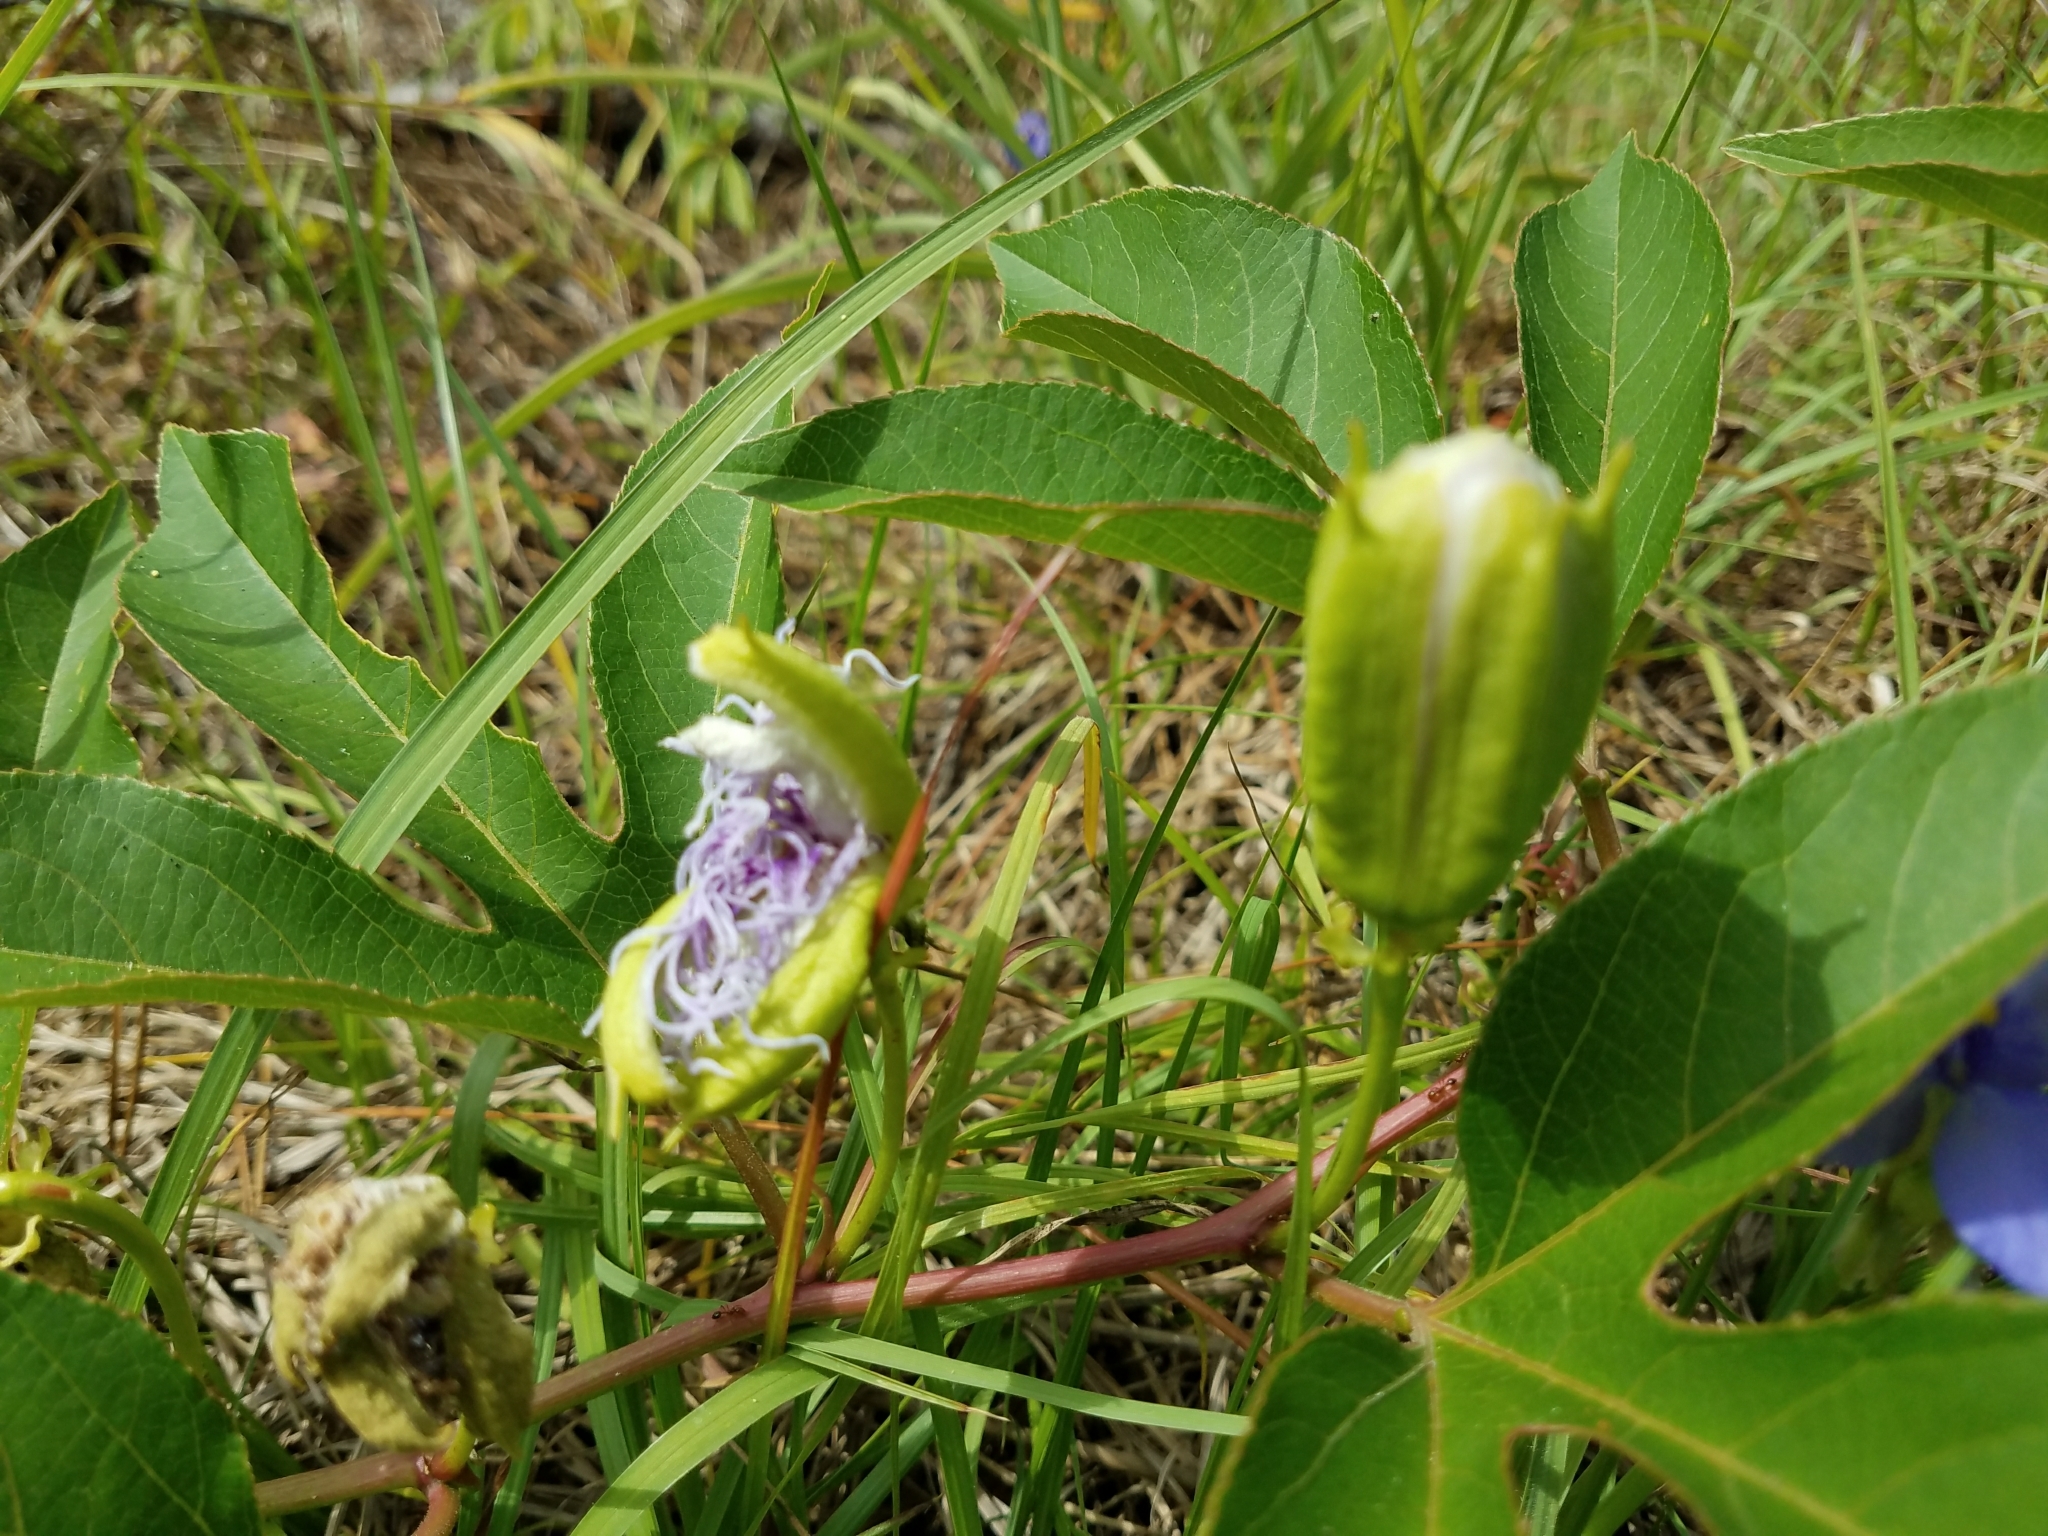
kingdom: Plantae
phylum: Tracheophyta
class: Magnoliopsida
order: Malpighiales
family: Passifloraceae
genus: Passiflora
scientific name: Passiflora incarnata
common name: Apricot-vine
